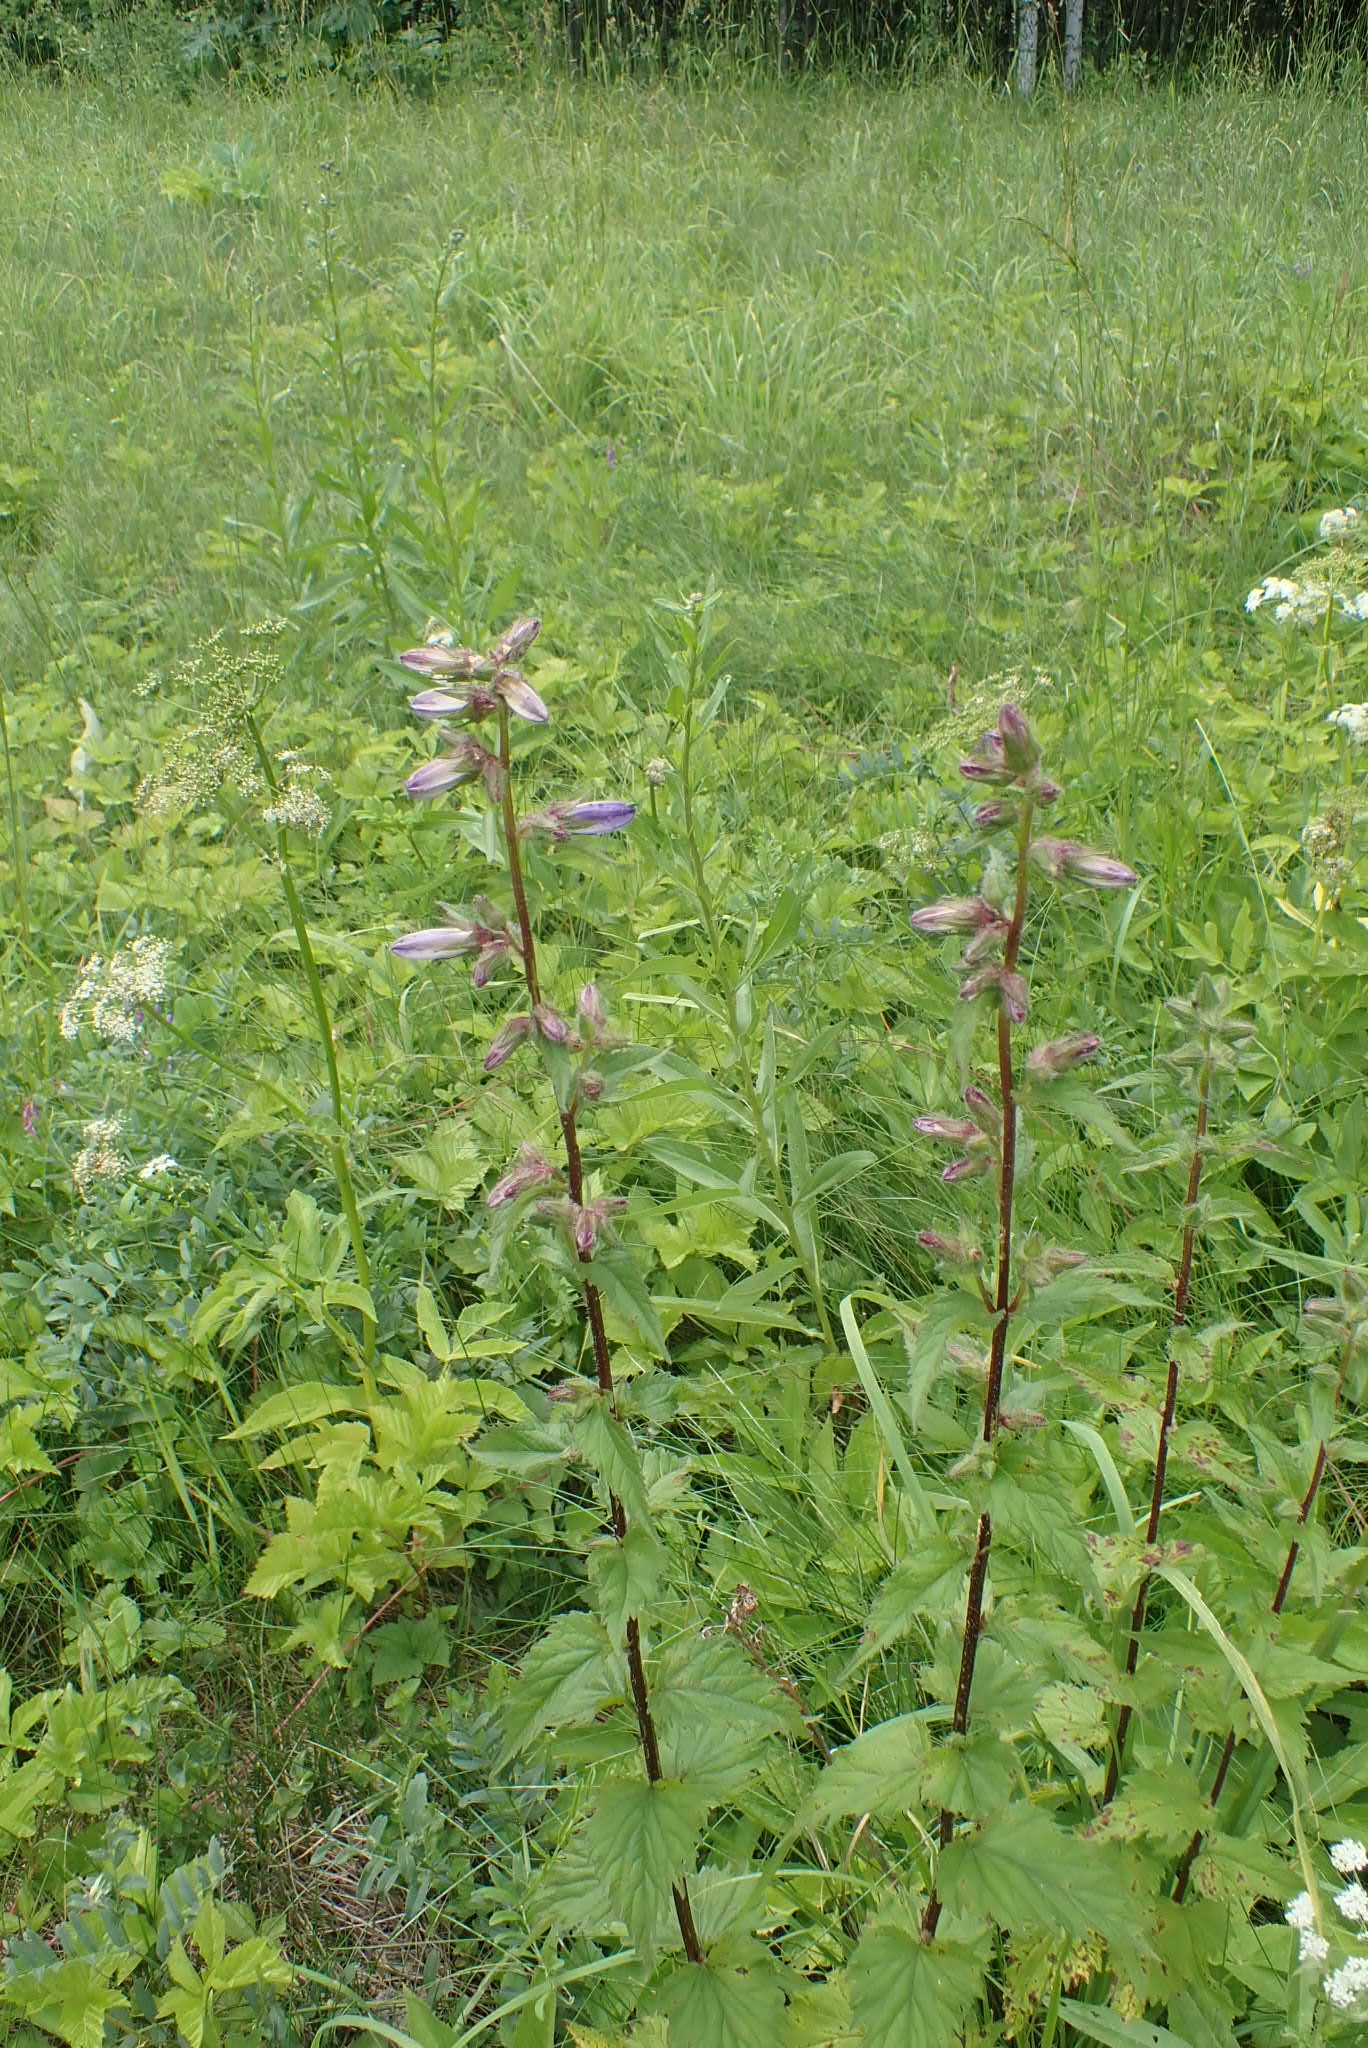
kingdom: Plantae
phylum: Tracheophyta
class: Magnoliopsida
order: Asterales
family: Campanulaceae
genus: Campanula
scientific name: Campanula trachelium
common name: Nettle-leaved bellflower
